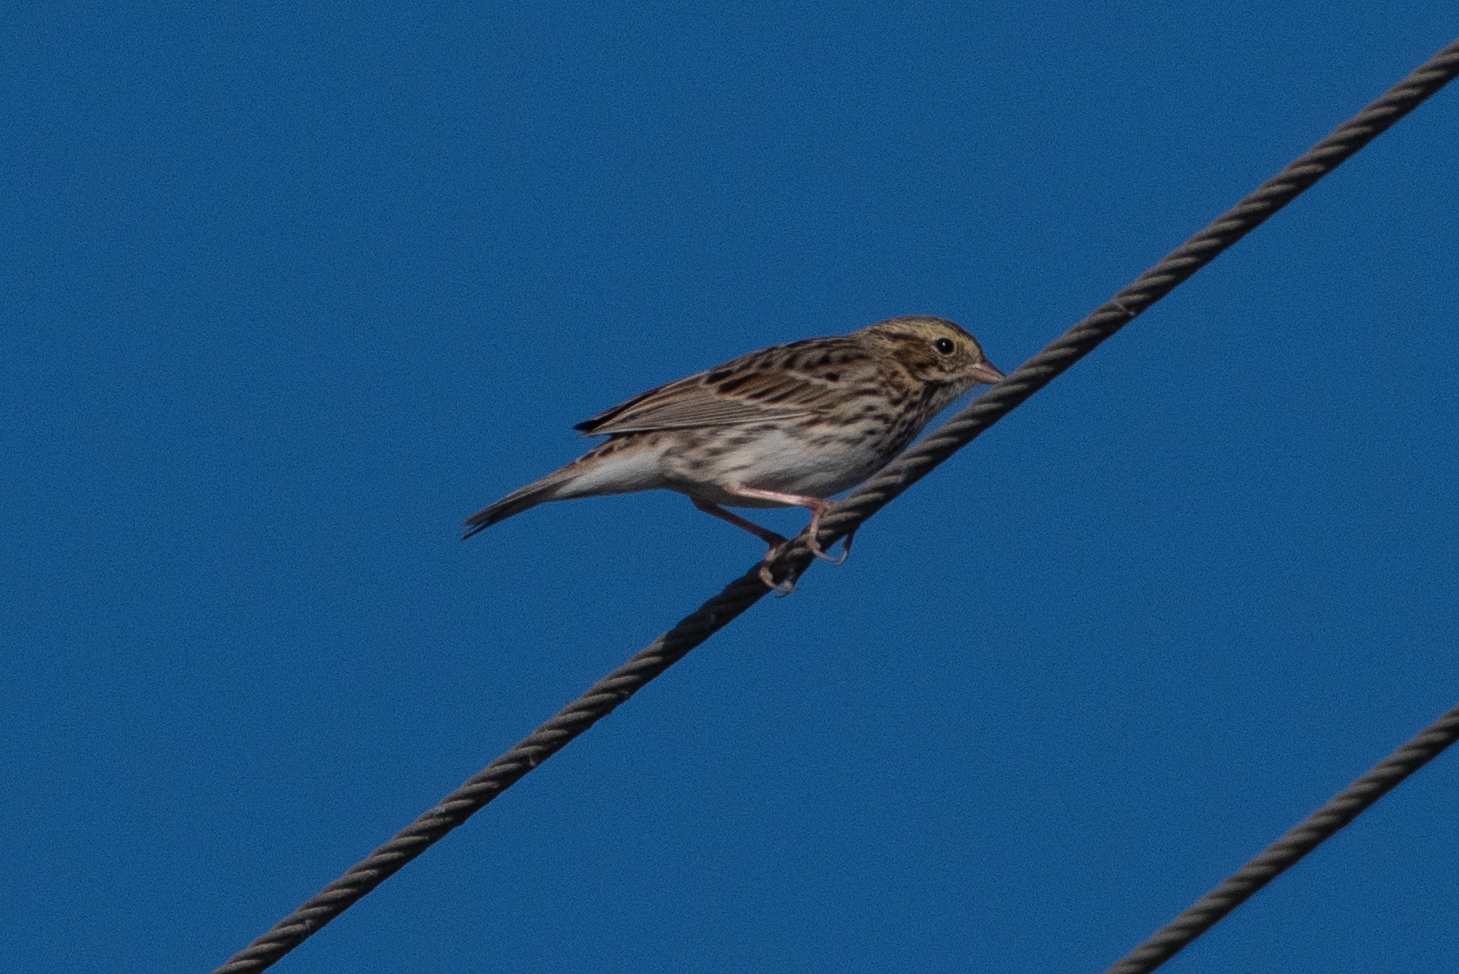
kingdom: Animalia
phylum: Chordata
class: Aves
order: Passeriformes
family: Passerellidae
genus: Passerculus
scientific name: Passerculus sandwichensis
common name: Savannah sparrow
